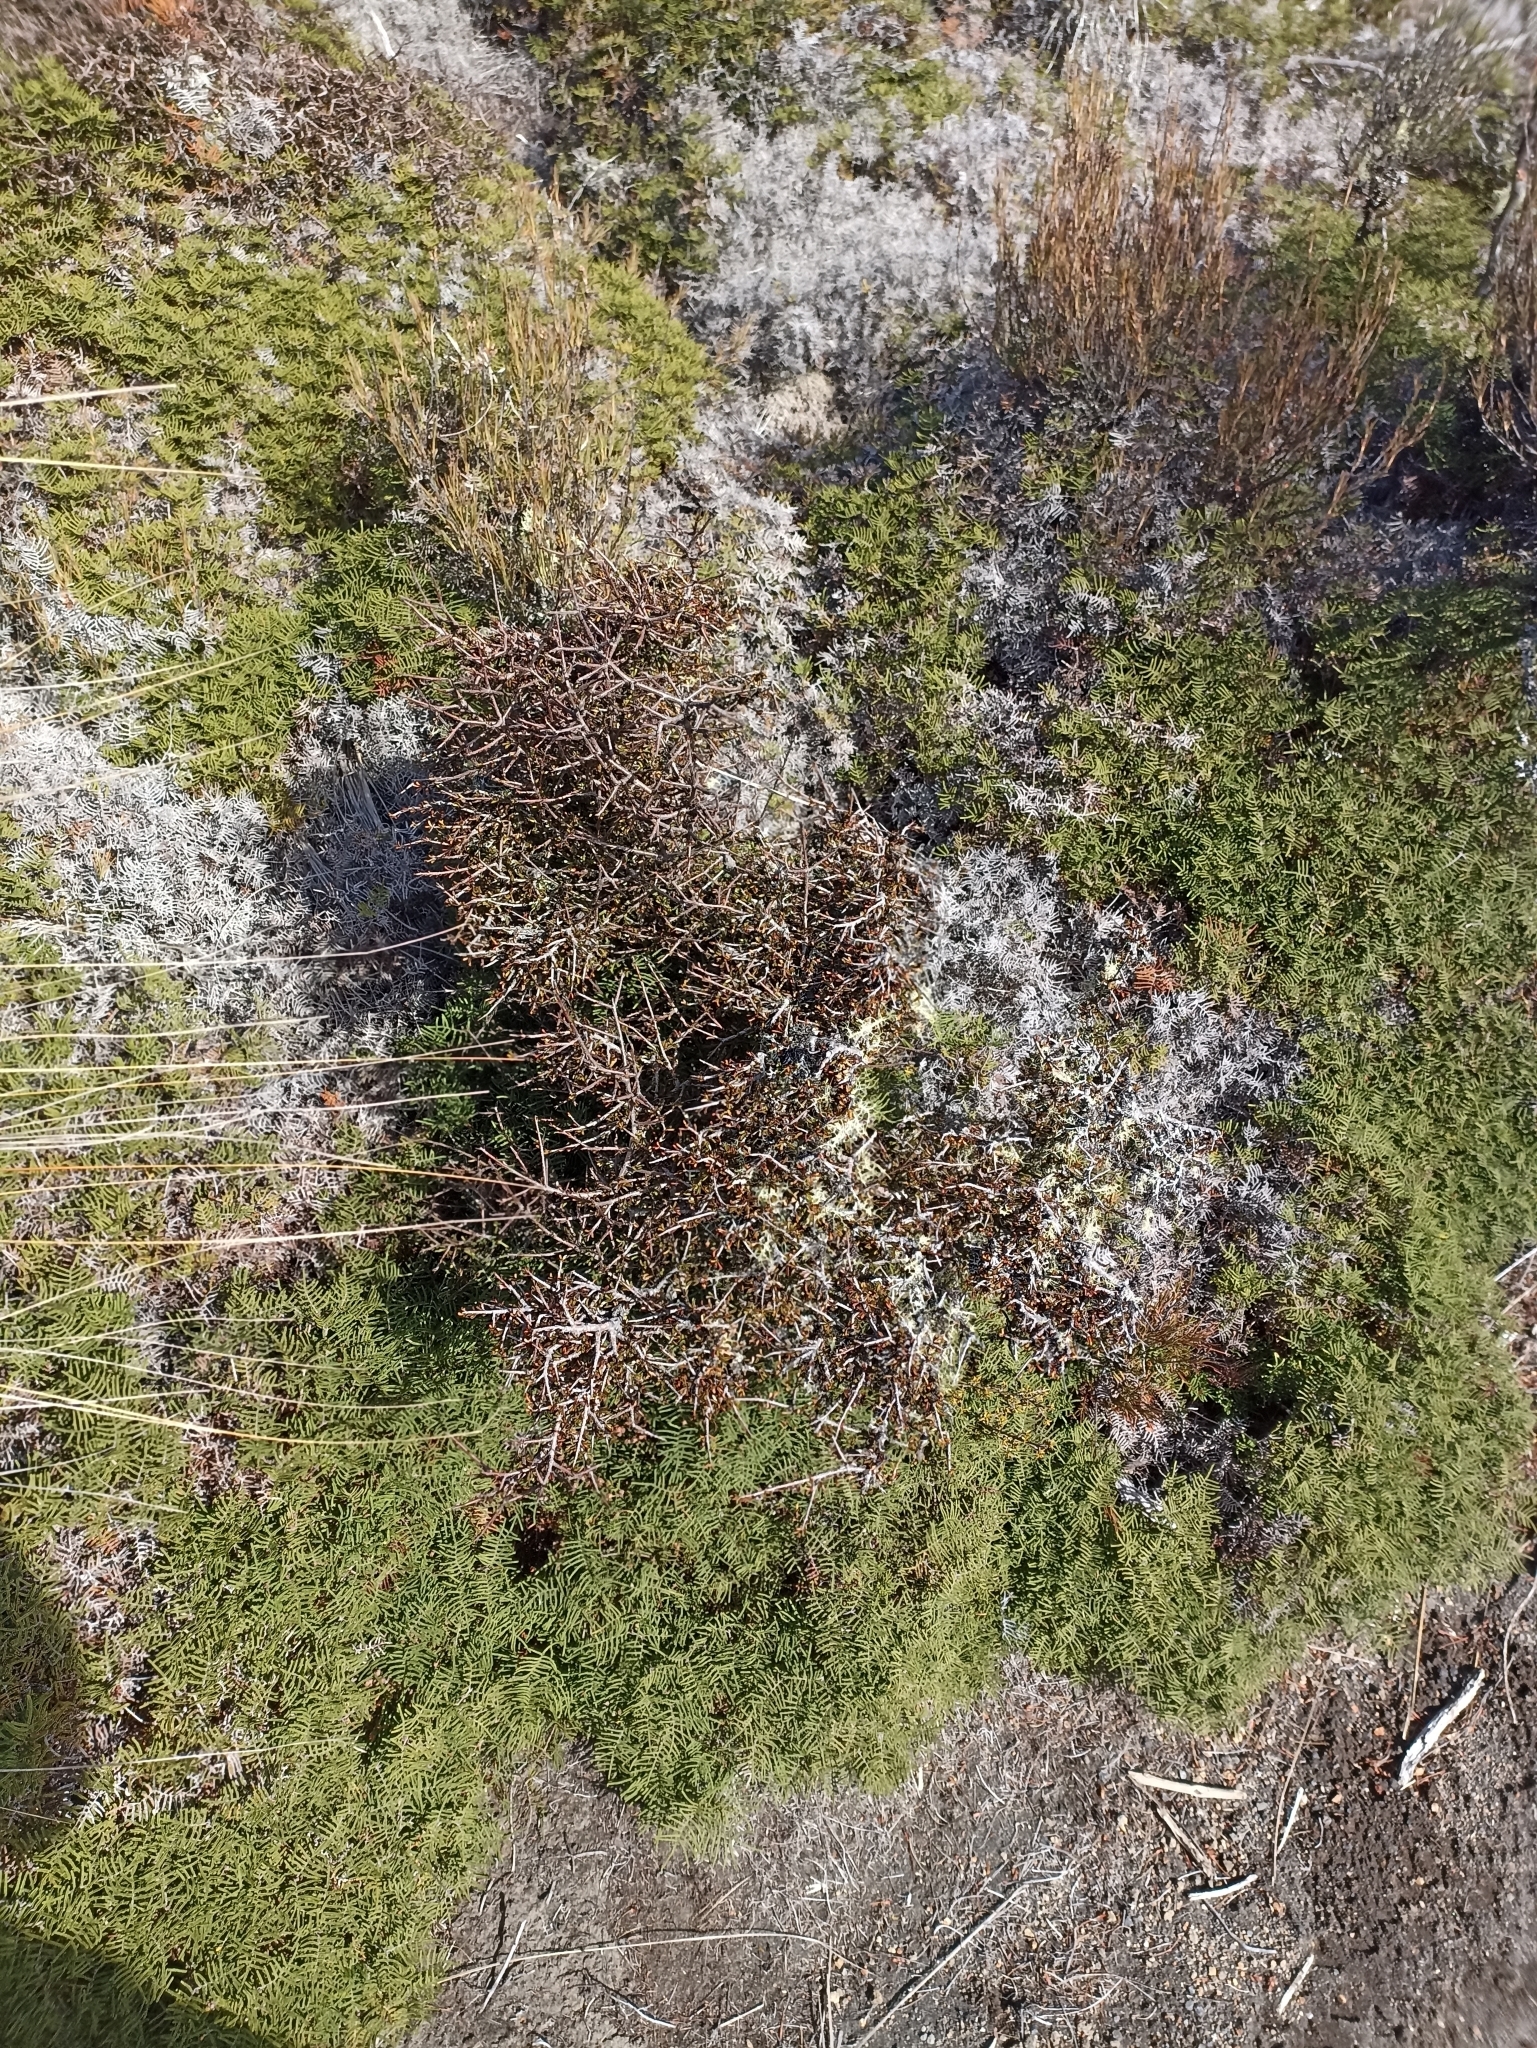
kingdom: Plantae
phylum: Tracheophyta
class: Magnoliopsida
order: Apiales
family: Pittosporaceae
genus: Pittosporum
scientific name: Pittosporum rigidum
